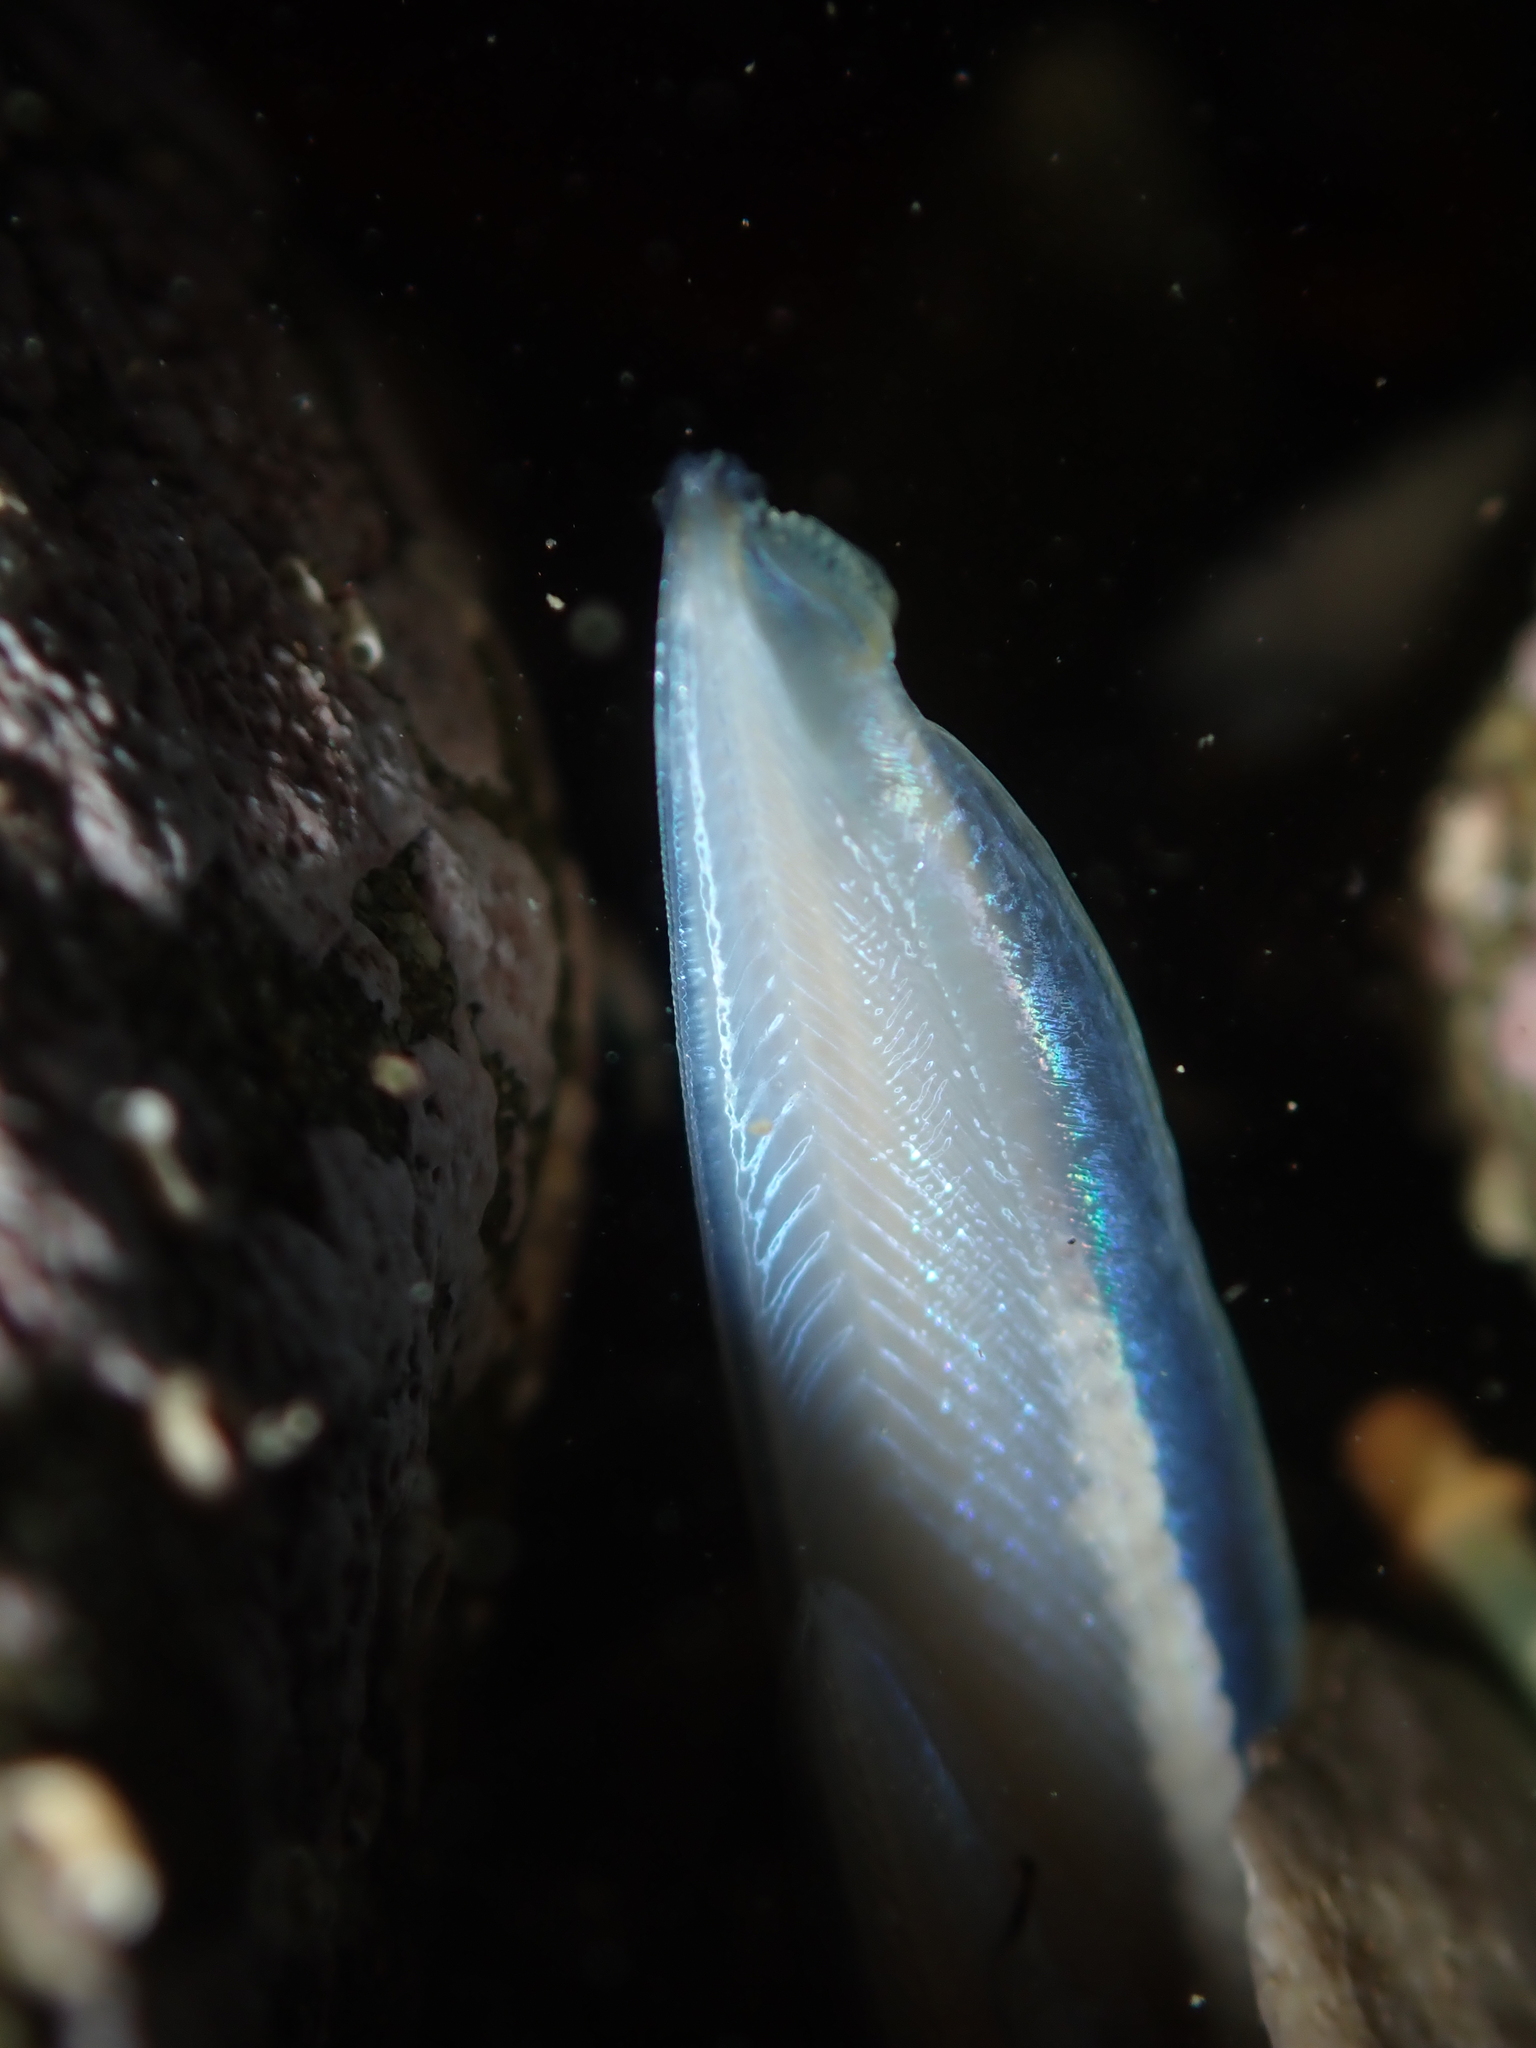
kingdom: Animalia
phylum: Chordata
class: Leptocardii
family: Branchiostomatidae
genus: Epigonichthys
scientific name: Epigonichthys hectori
